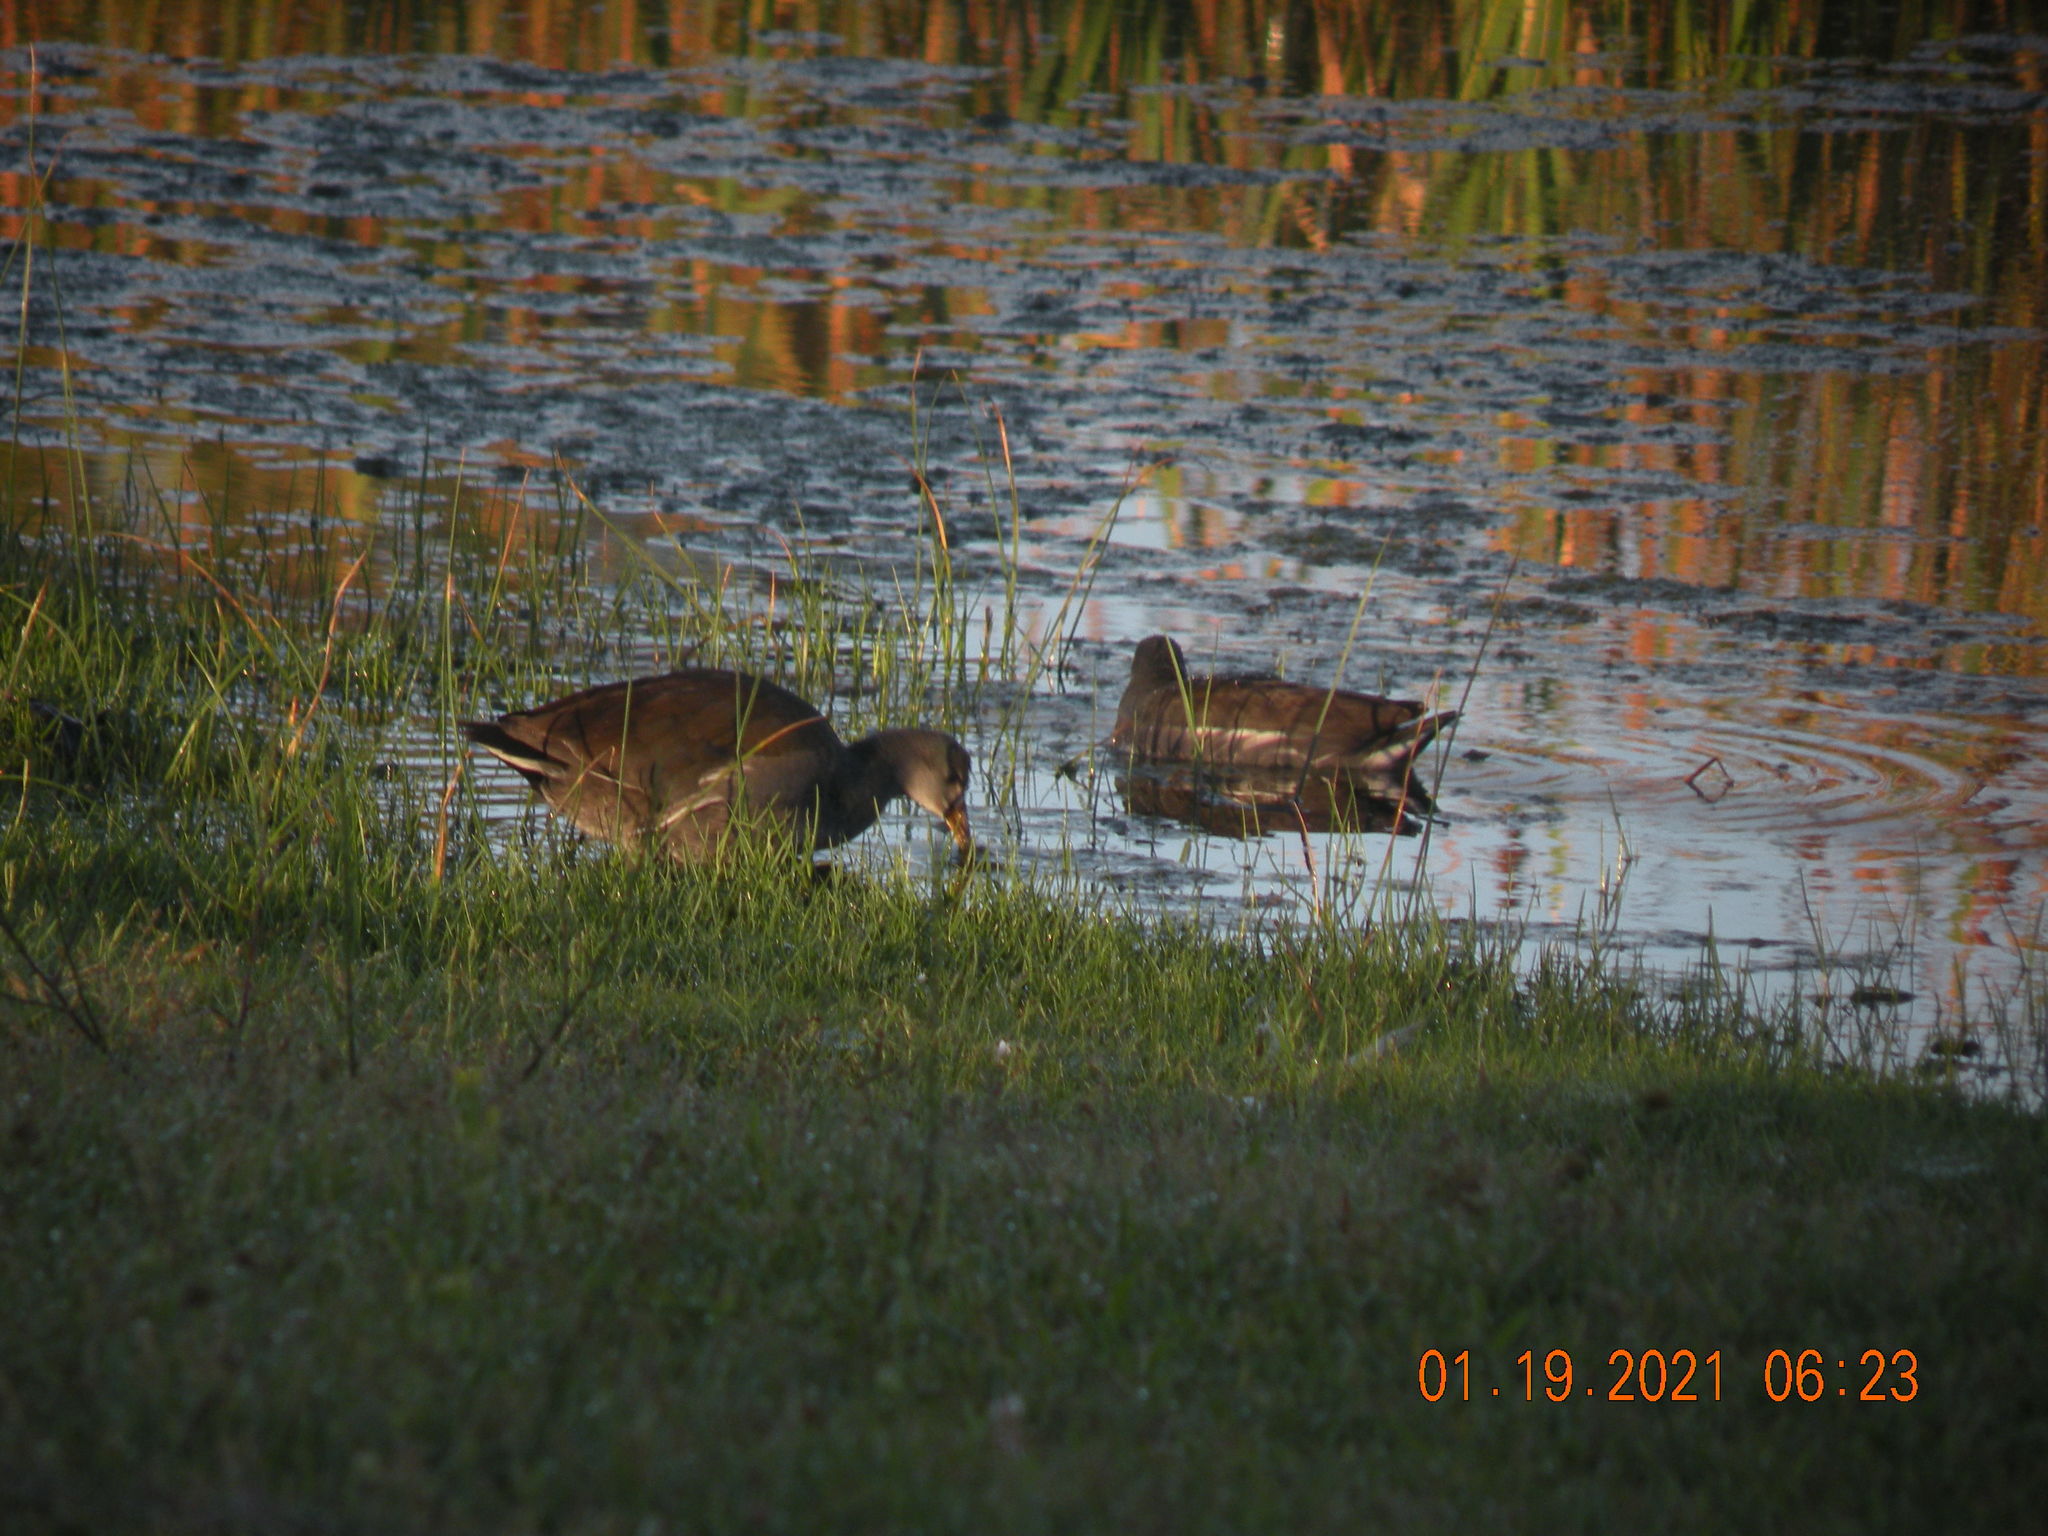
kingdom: Animalia
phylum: Chordata
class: Aves
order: Gruiformes
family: Rallidae
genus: Gallinula
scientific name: Gallinula chloropus
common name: Common moorhen
